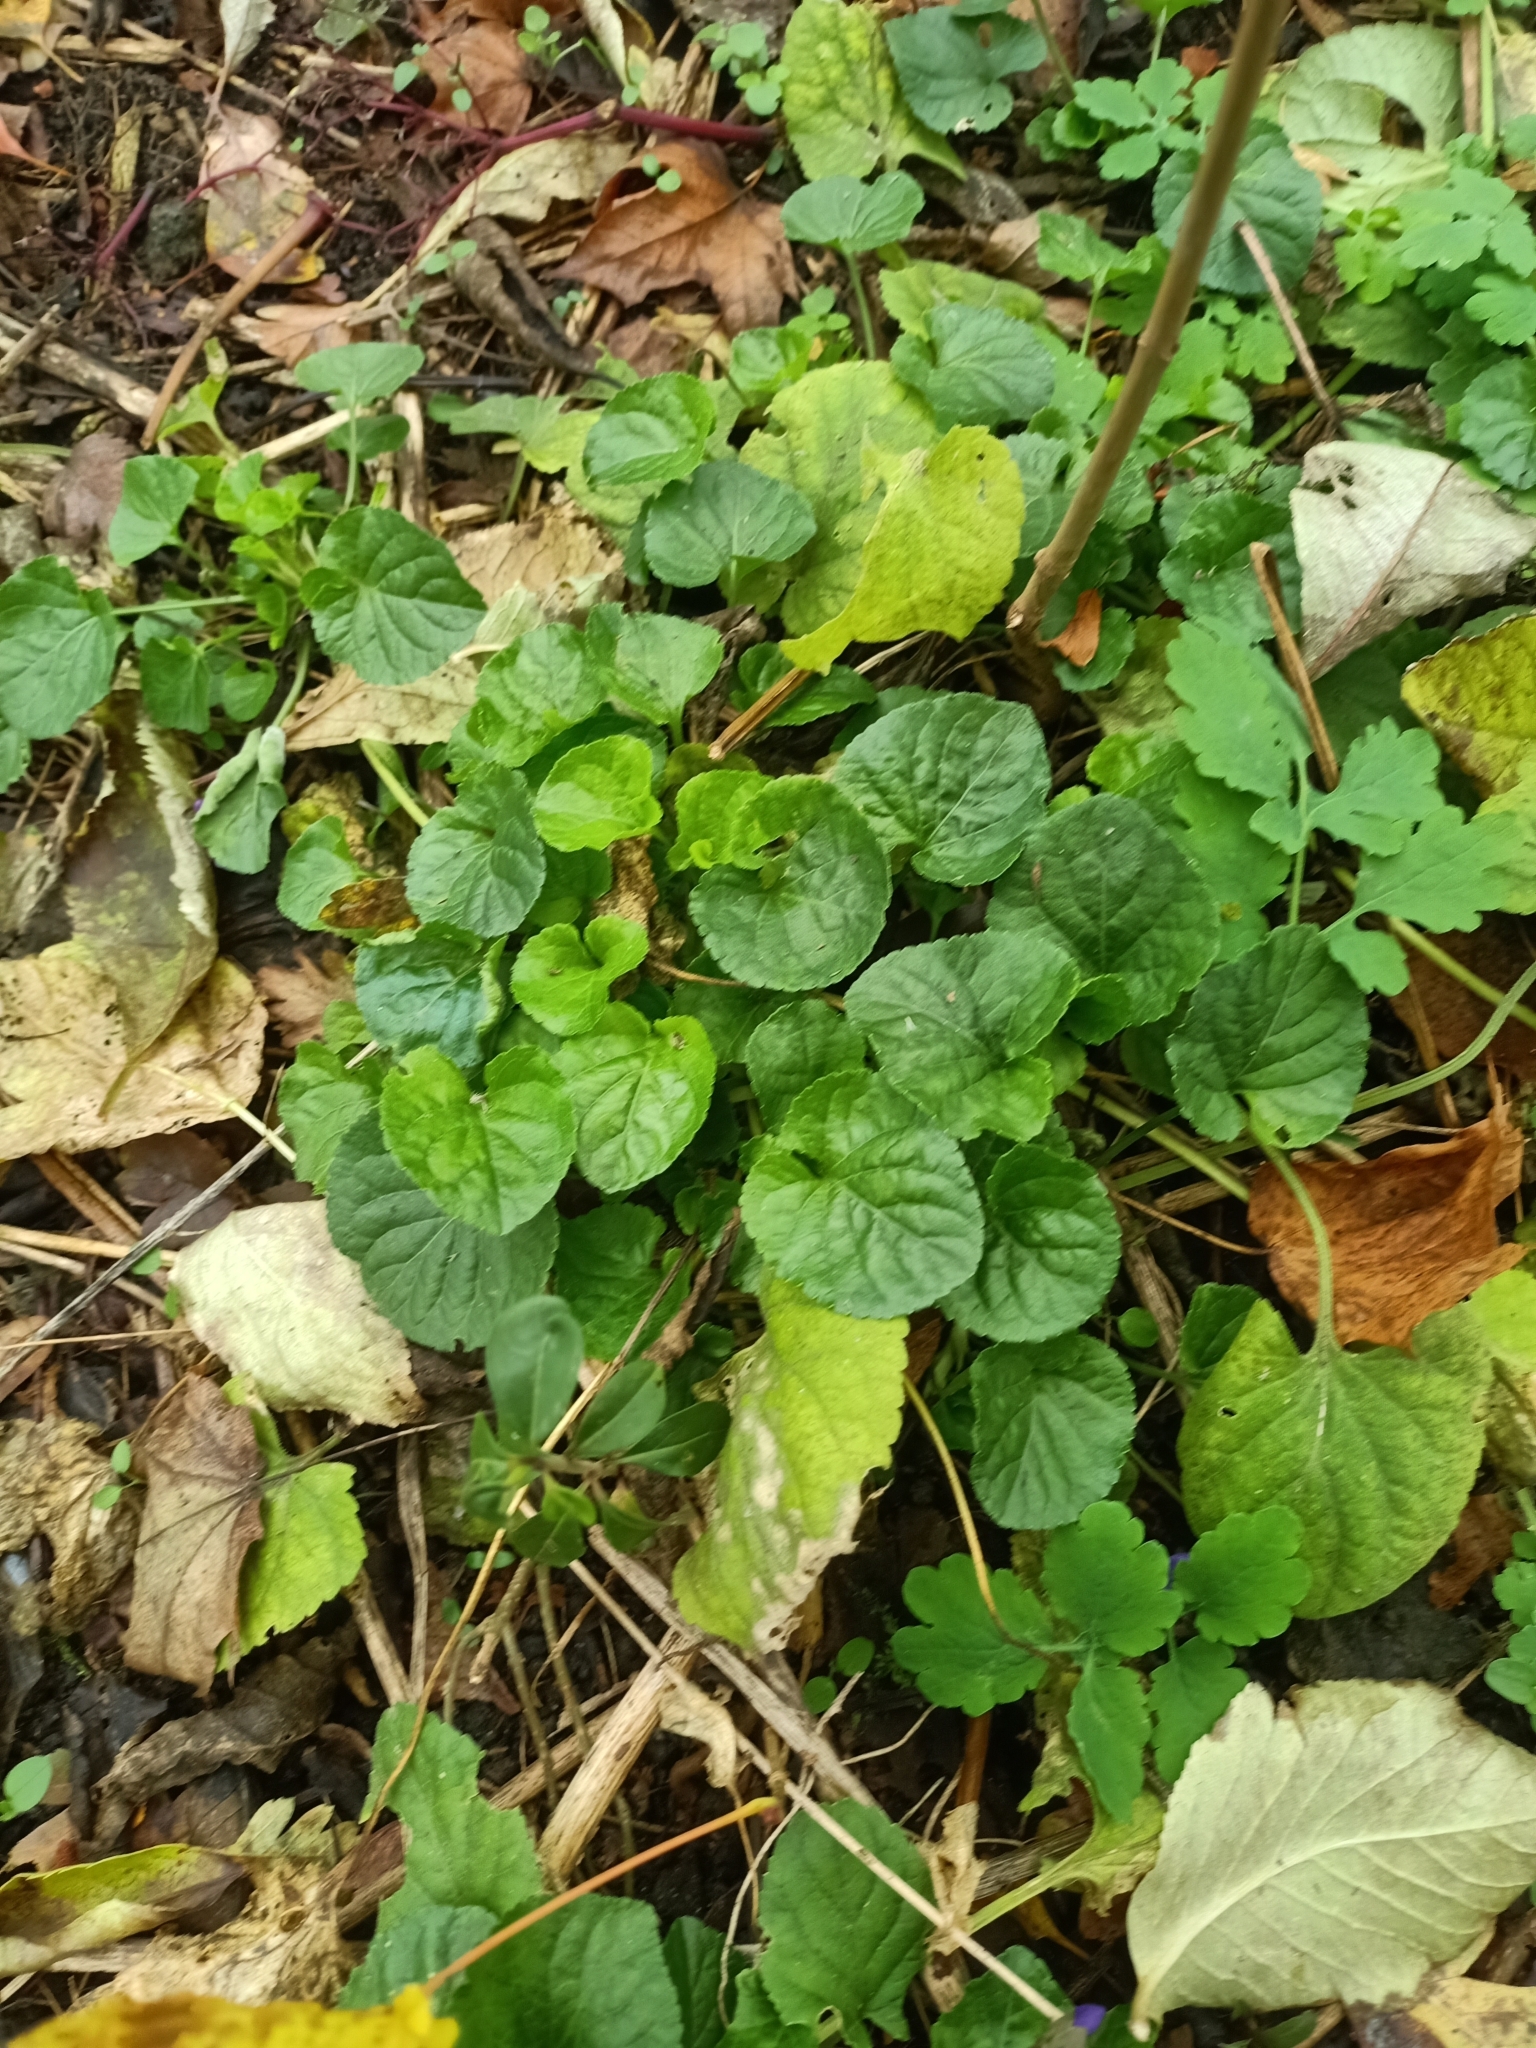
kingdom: Plantae
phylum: Tracheophyta
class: Magnoliopsida
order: Malpighiales
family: Violaceae
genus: Viola
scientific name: Viola odorata
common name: Sweet violet
